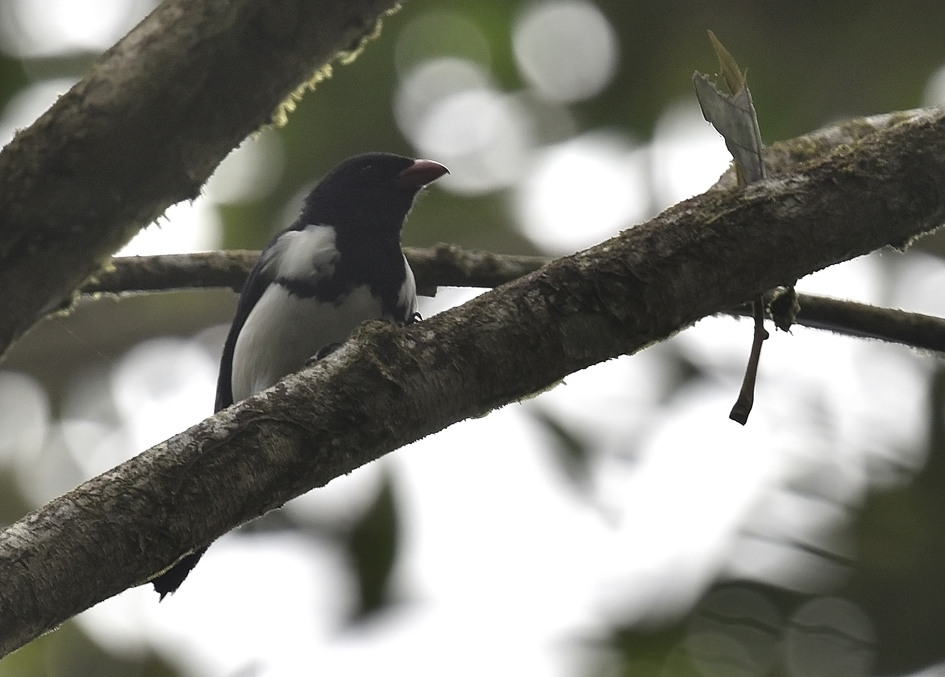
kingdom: Animalia
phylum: Chordata
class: Aves
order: Passeriformes
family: Mitrospingidae
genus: Lamprospiza
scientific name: Lamprospiza melanoleuca
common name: Red-billed pied tanager
